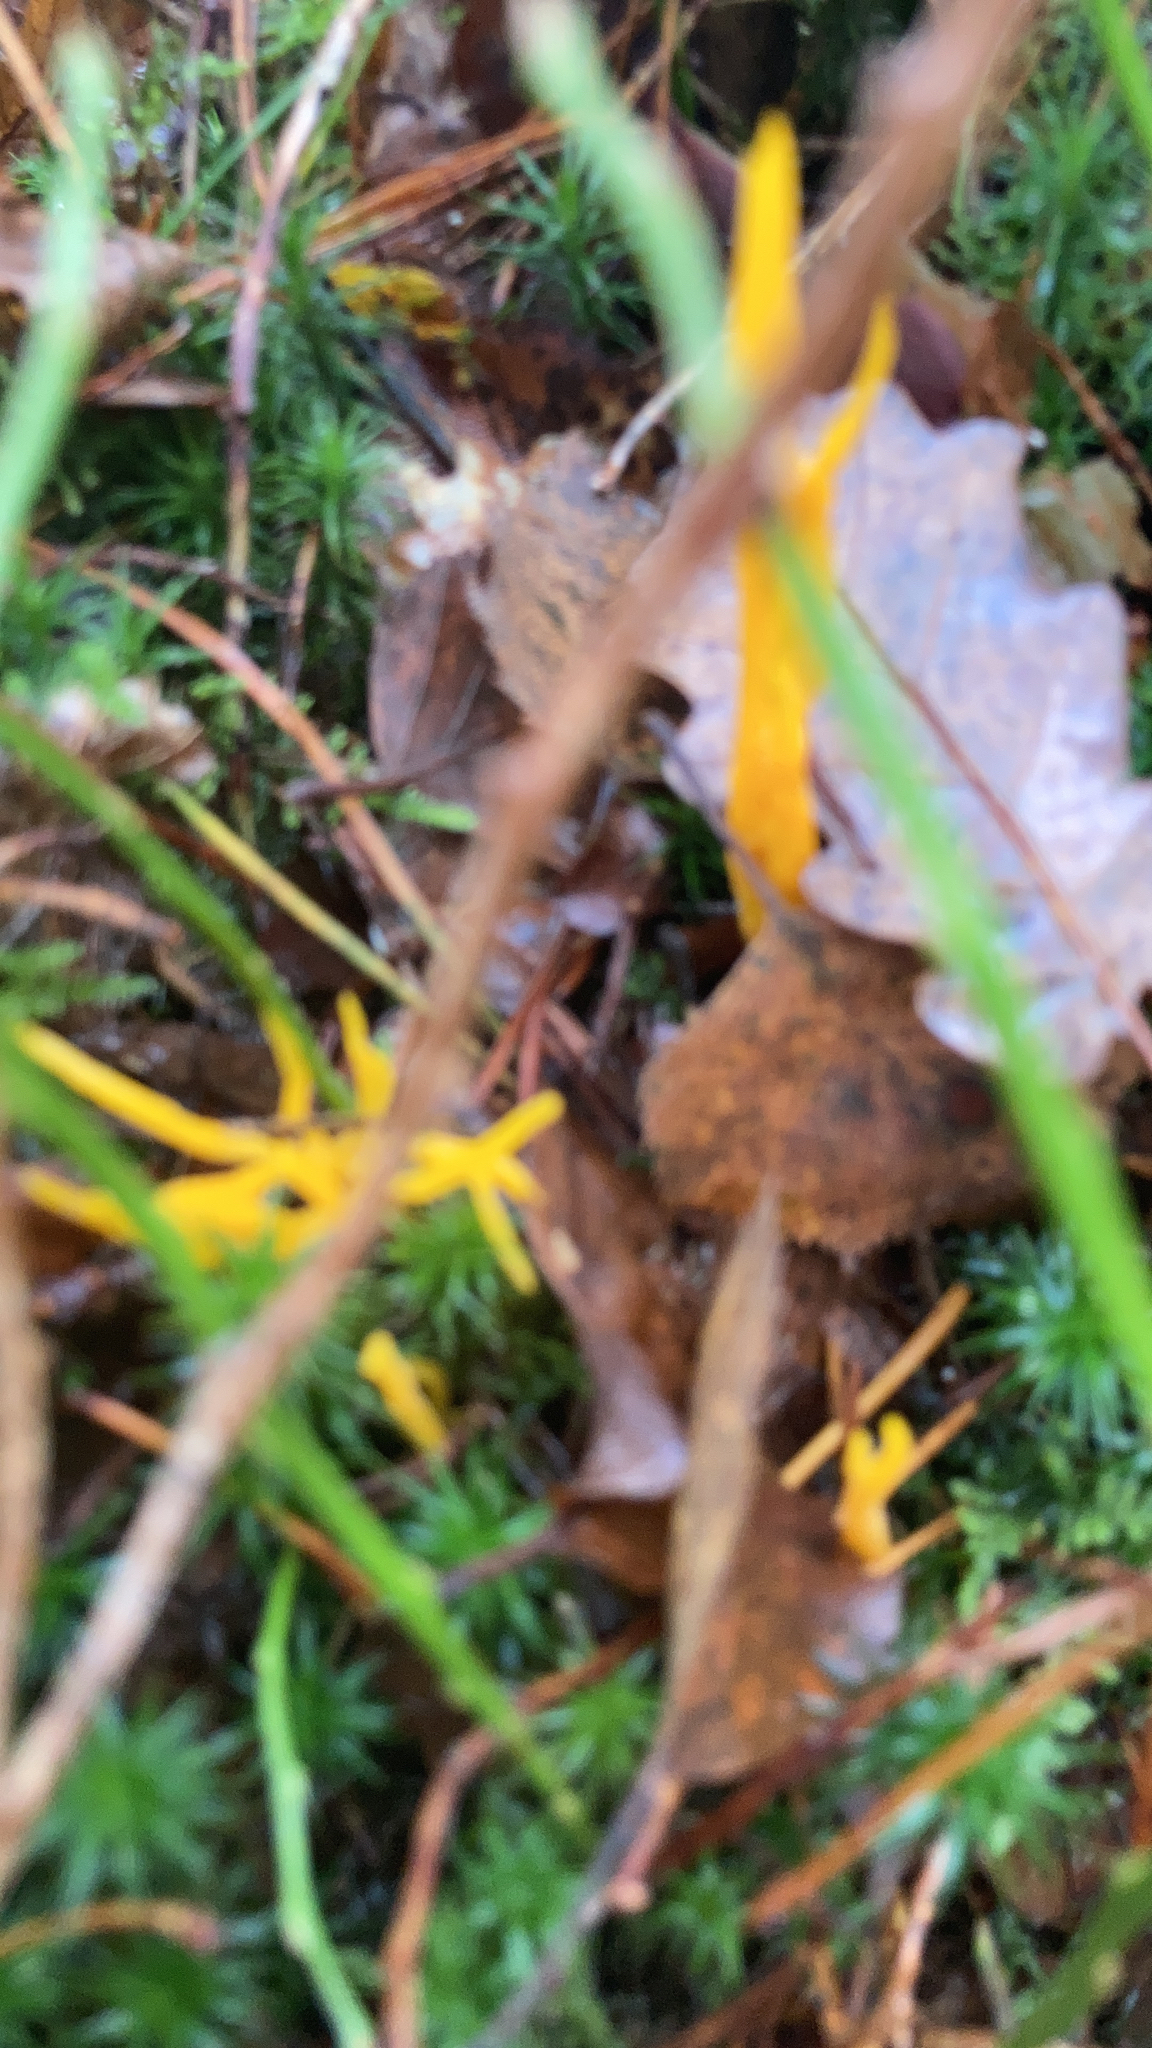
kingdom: Fungi
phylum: Basidiomycota
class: Dacrymycetes
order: Dacrymycetales
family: Dacrymycetaceae
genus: Calocera
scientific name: Calocera viscosa
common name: Yellow stagshorn
